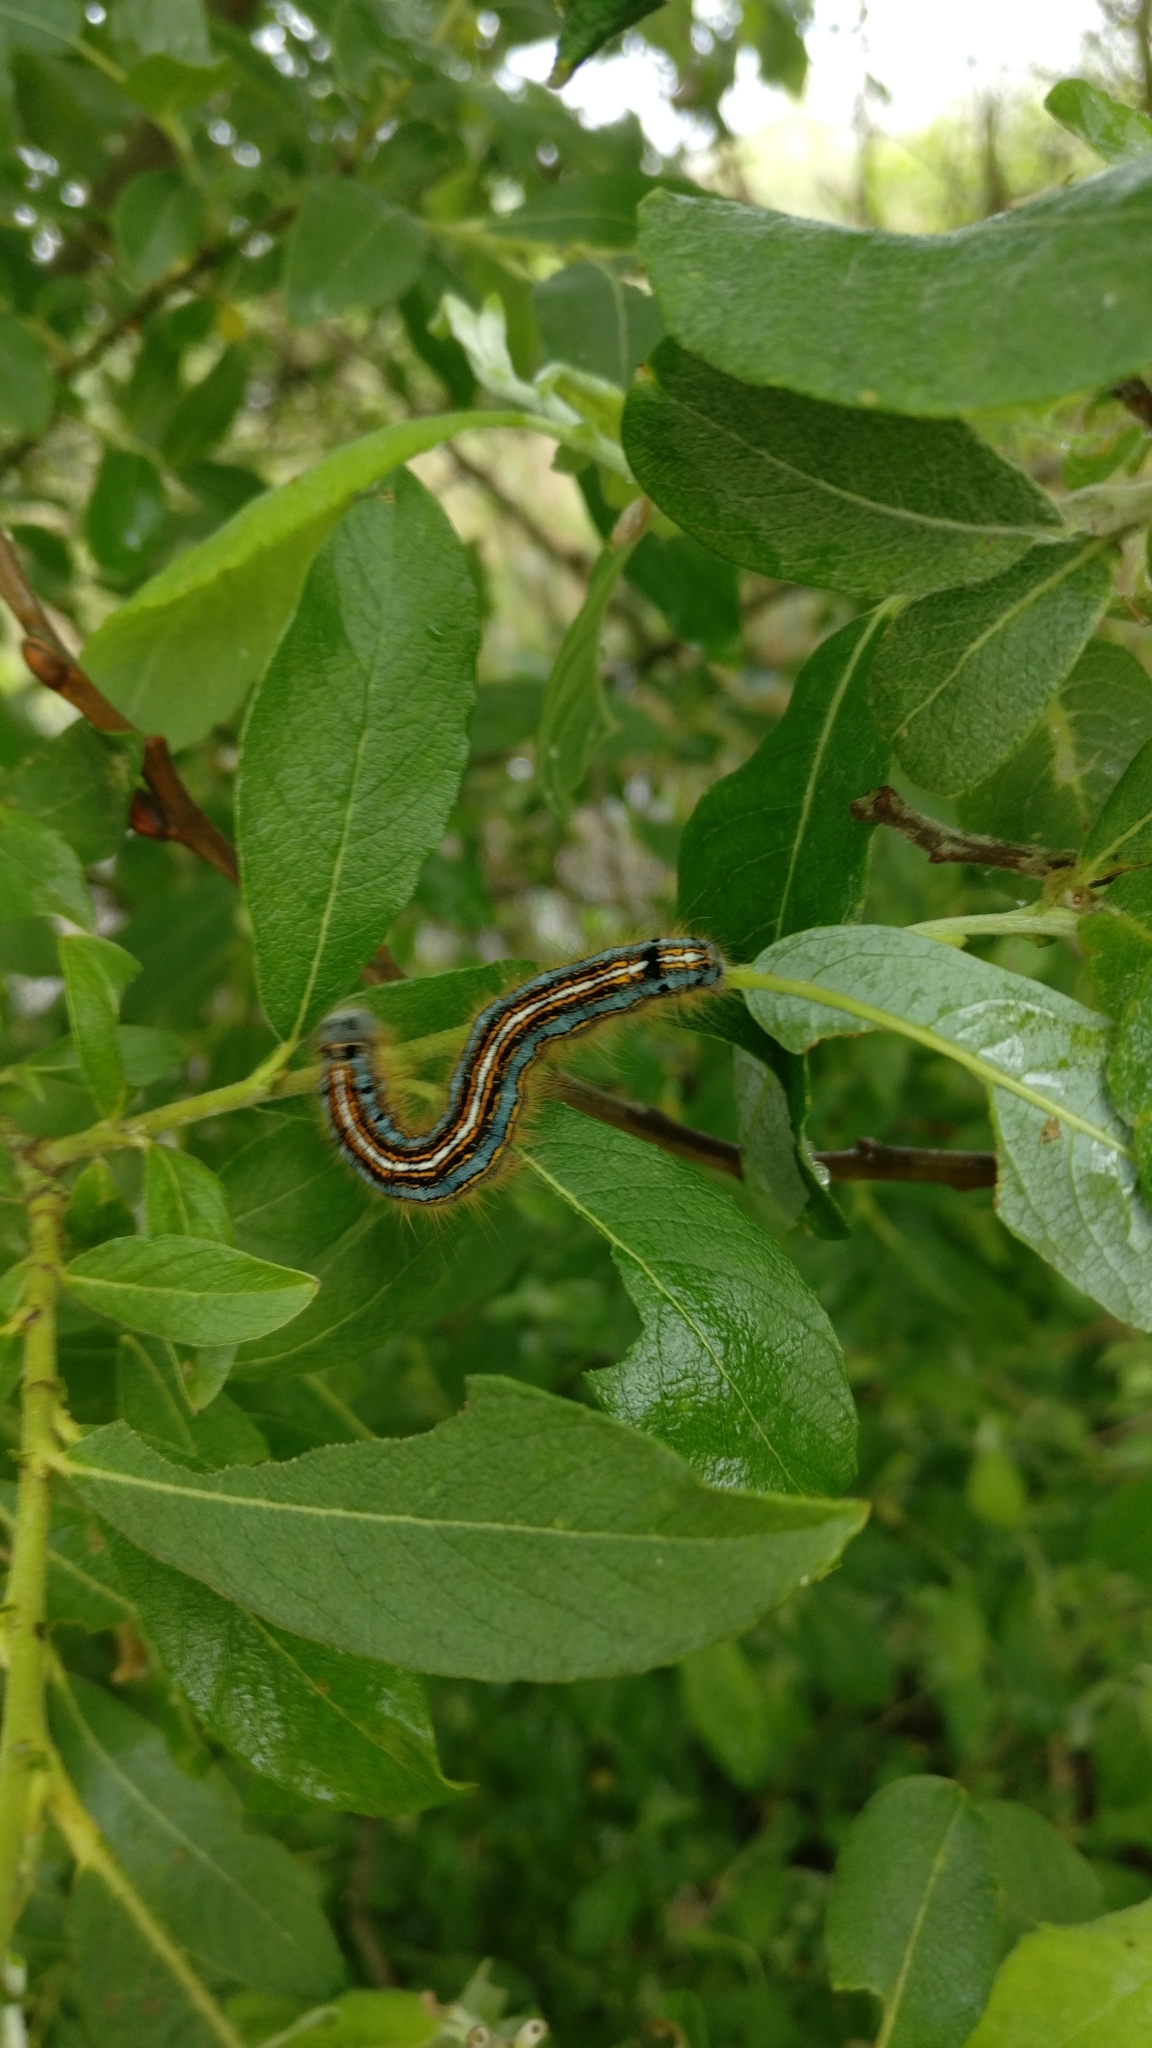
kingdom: Animalia
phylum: Arthropoda
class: Insecta
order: Lepidoptera
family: Lasiocampidae
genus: Malacosoma
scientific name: Malacosoma neustria
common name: The lackey
